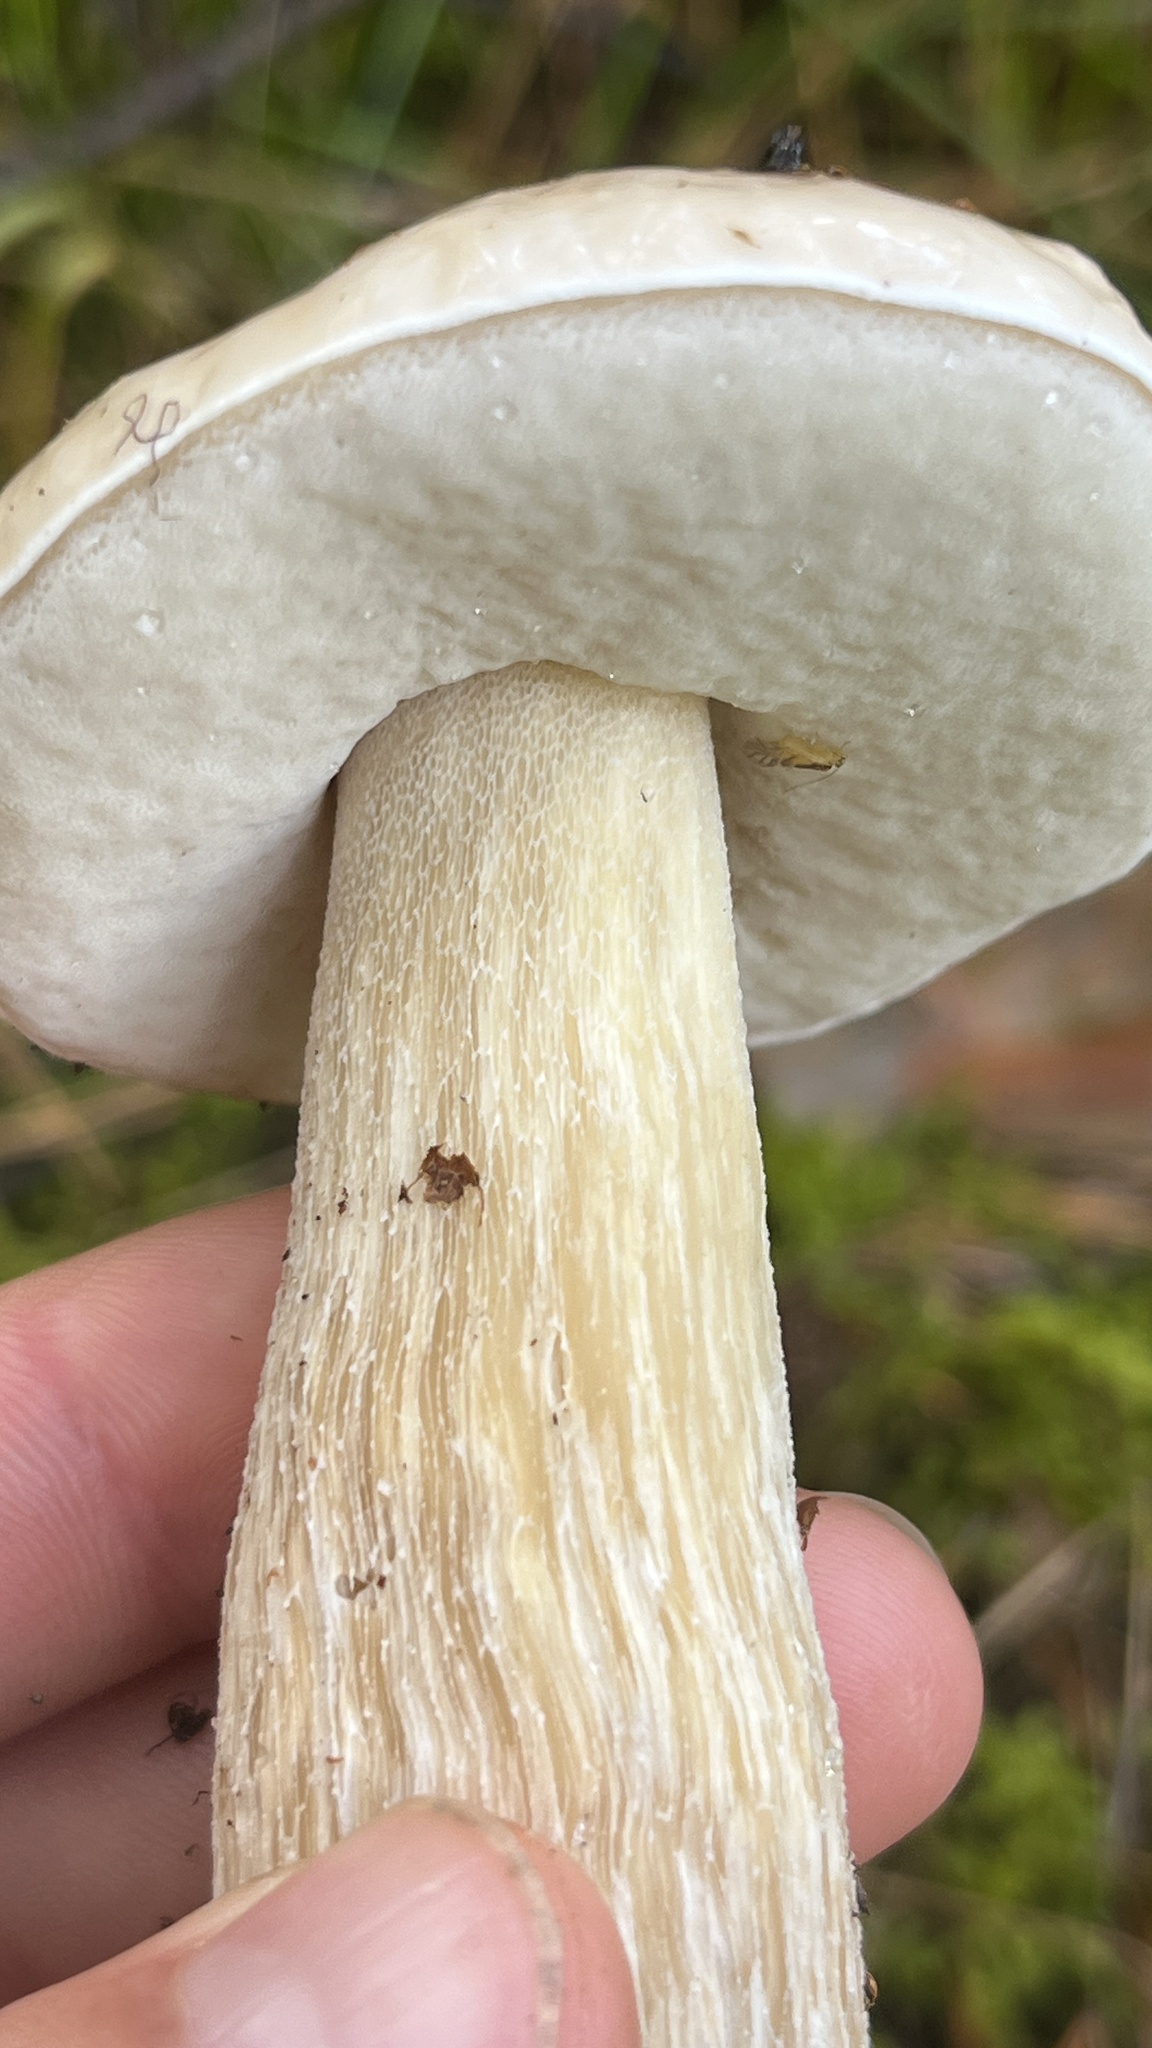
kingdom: Fungi
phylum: Basidiomycota
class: Agaricomycetes
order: Boletales
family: Boletaceae
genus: Boletus
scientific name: Boletus edulis
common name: Cep
